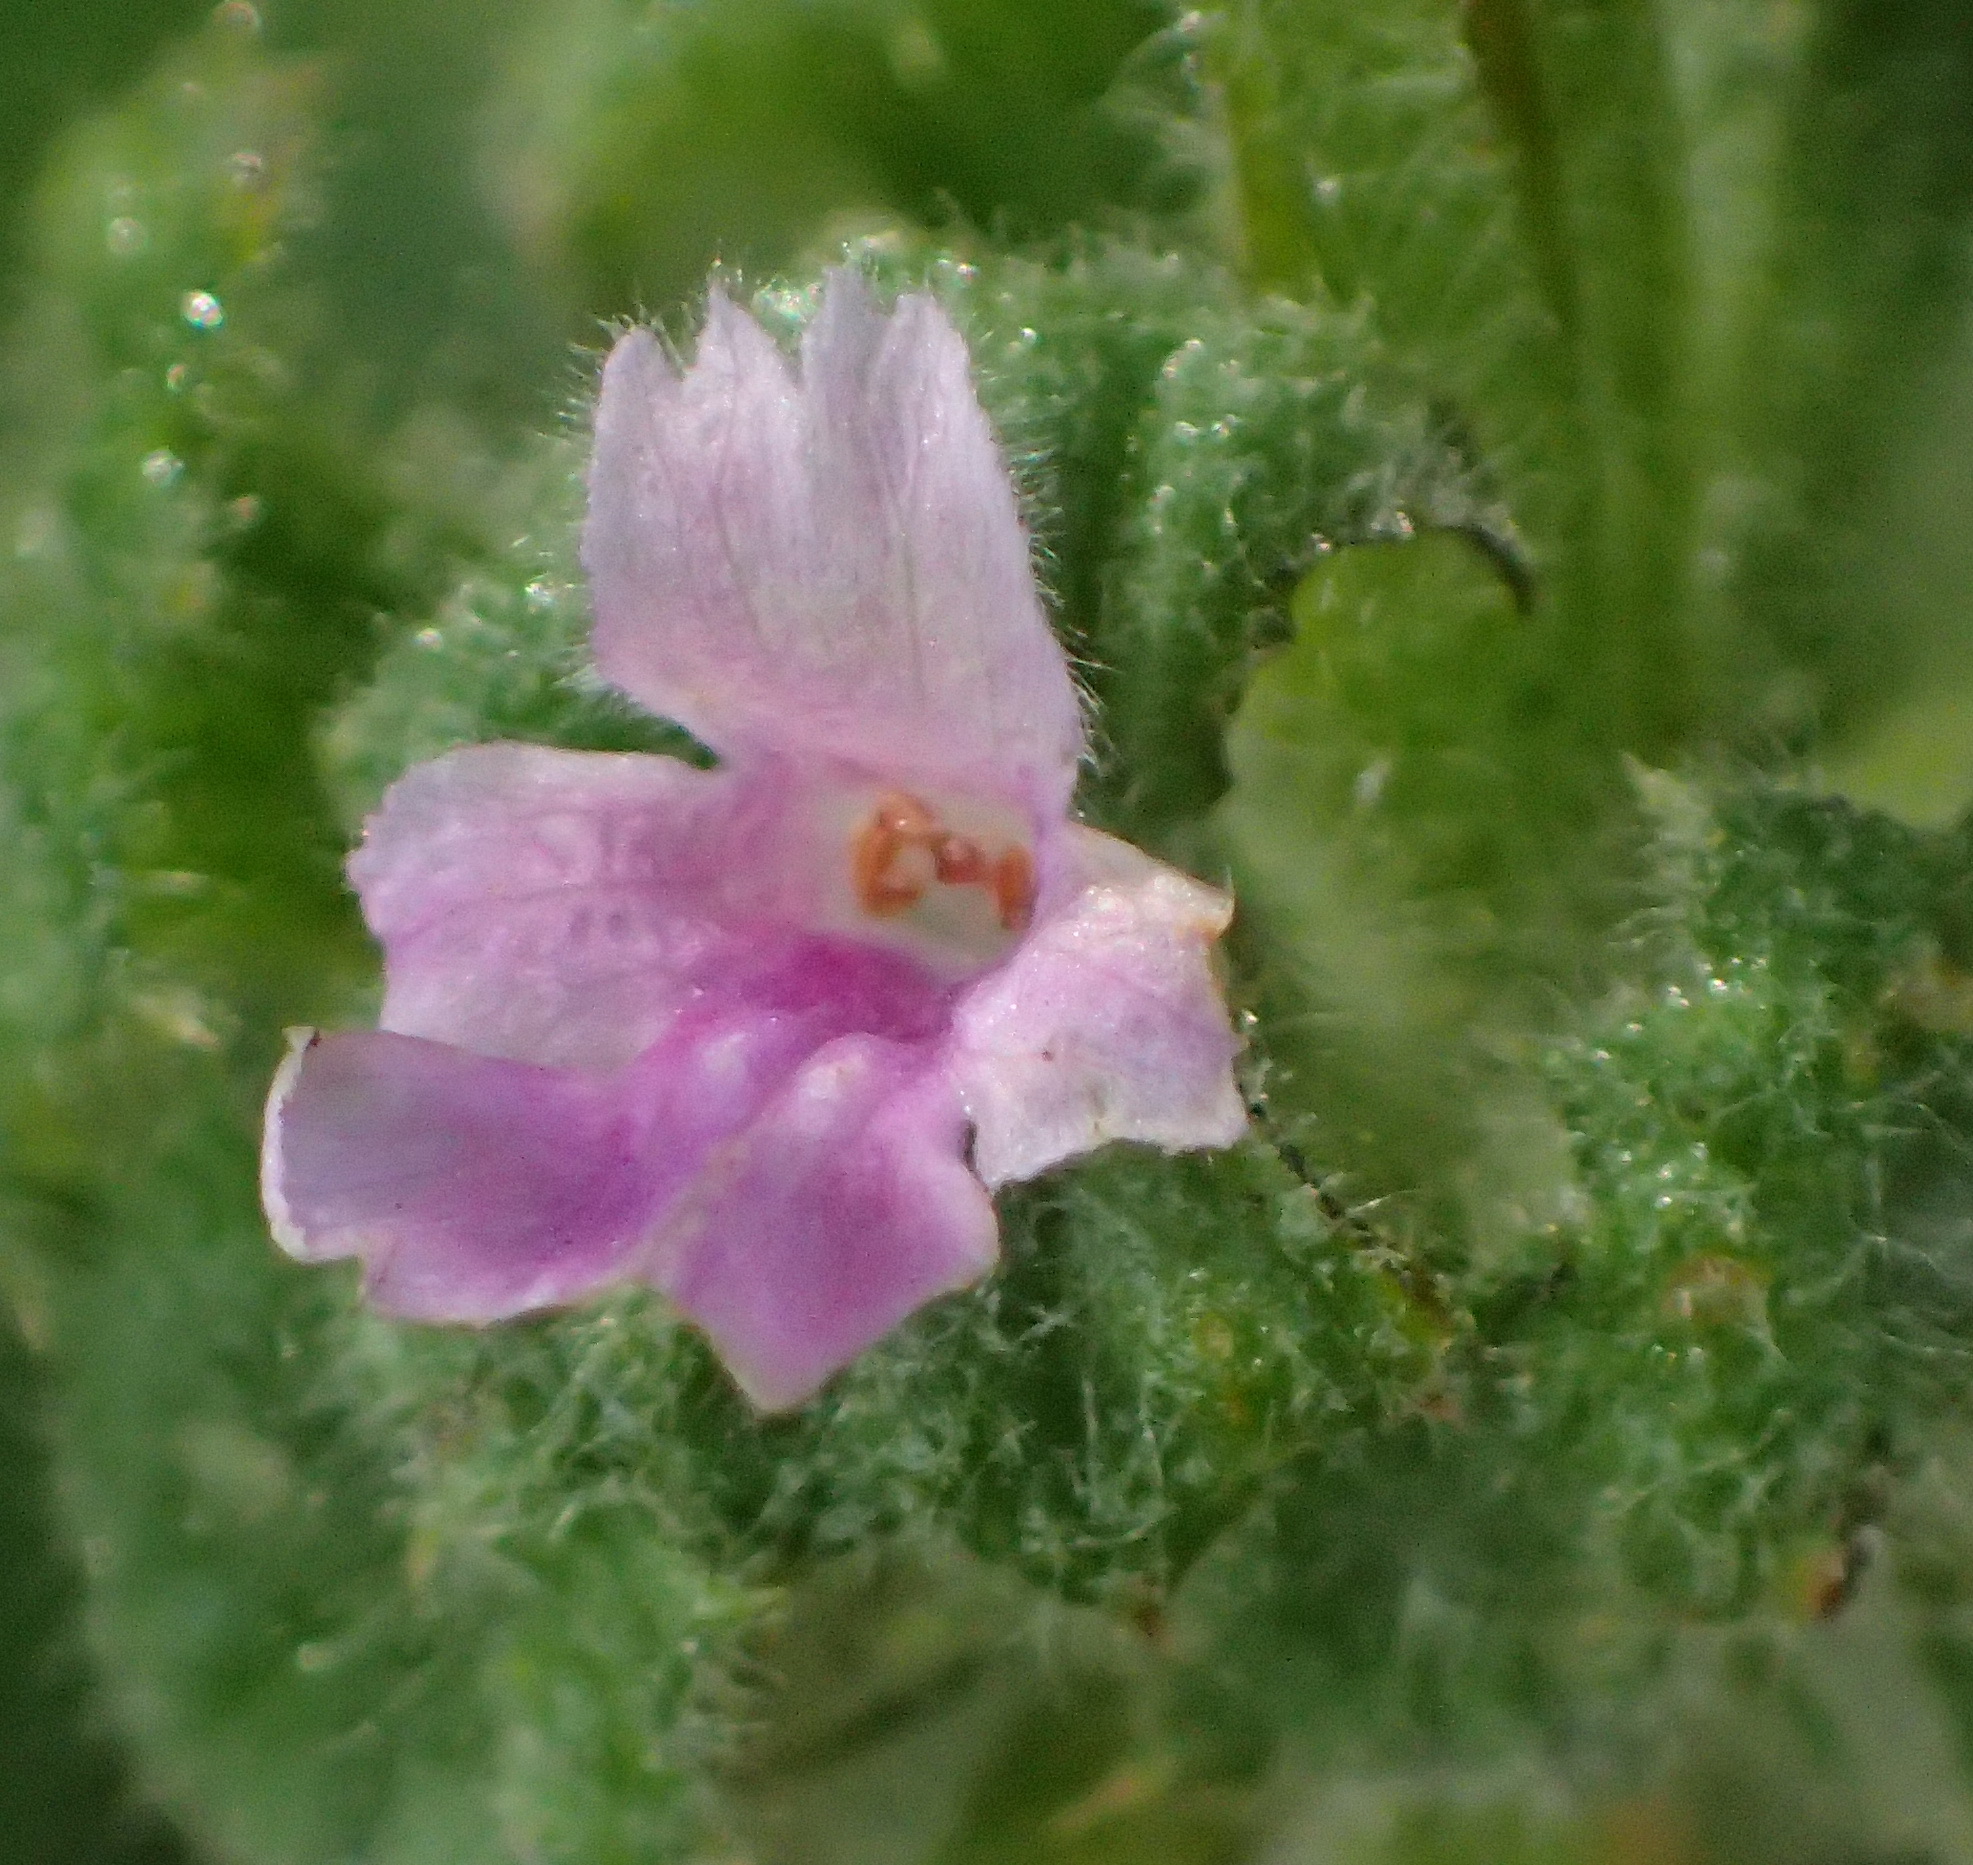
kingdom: Plantae
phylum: Tracheophyta
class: Magnoliopsida
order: Lamiales
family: Lamiaceae
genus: Pseudodictamnus
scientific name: Pseudodictamnus africanus
